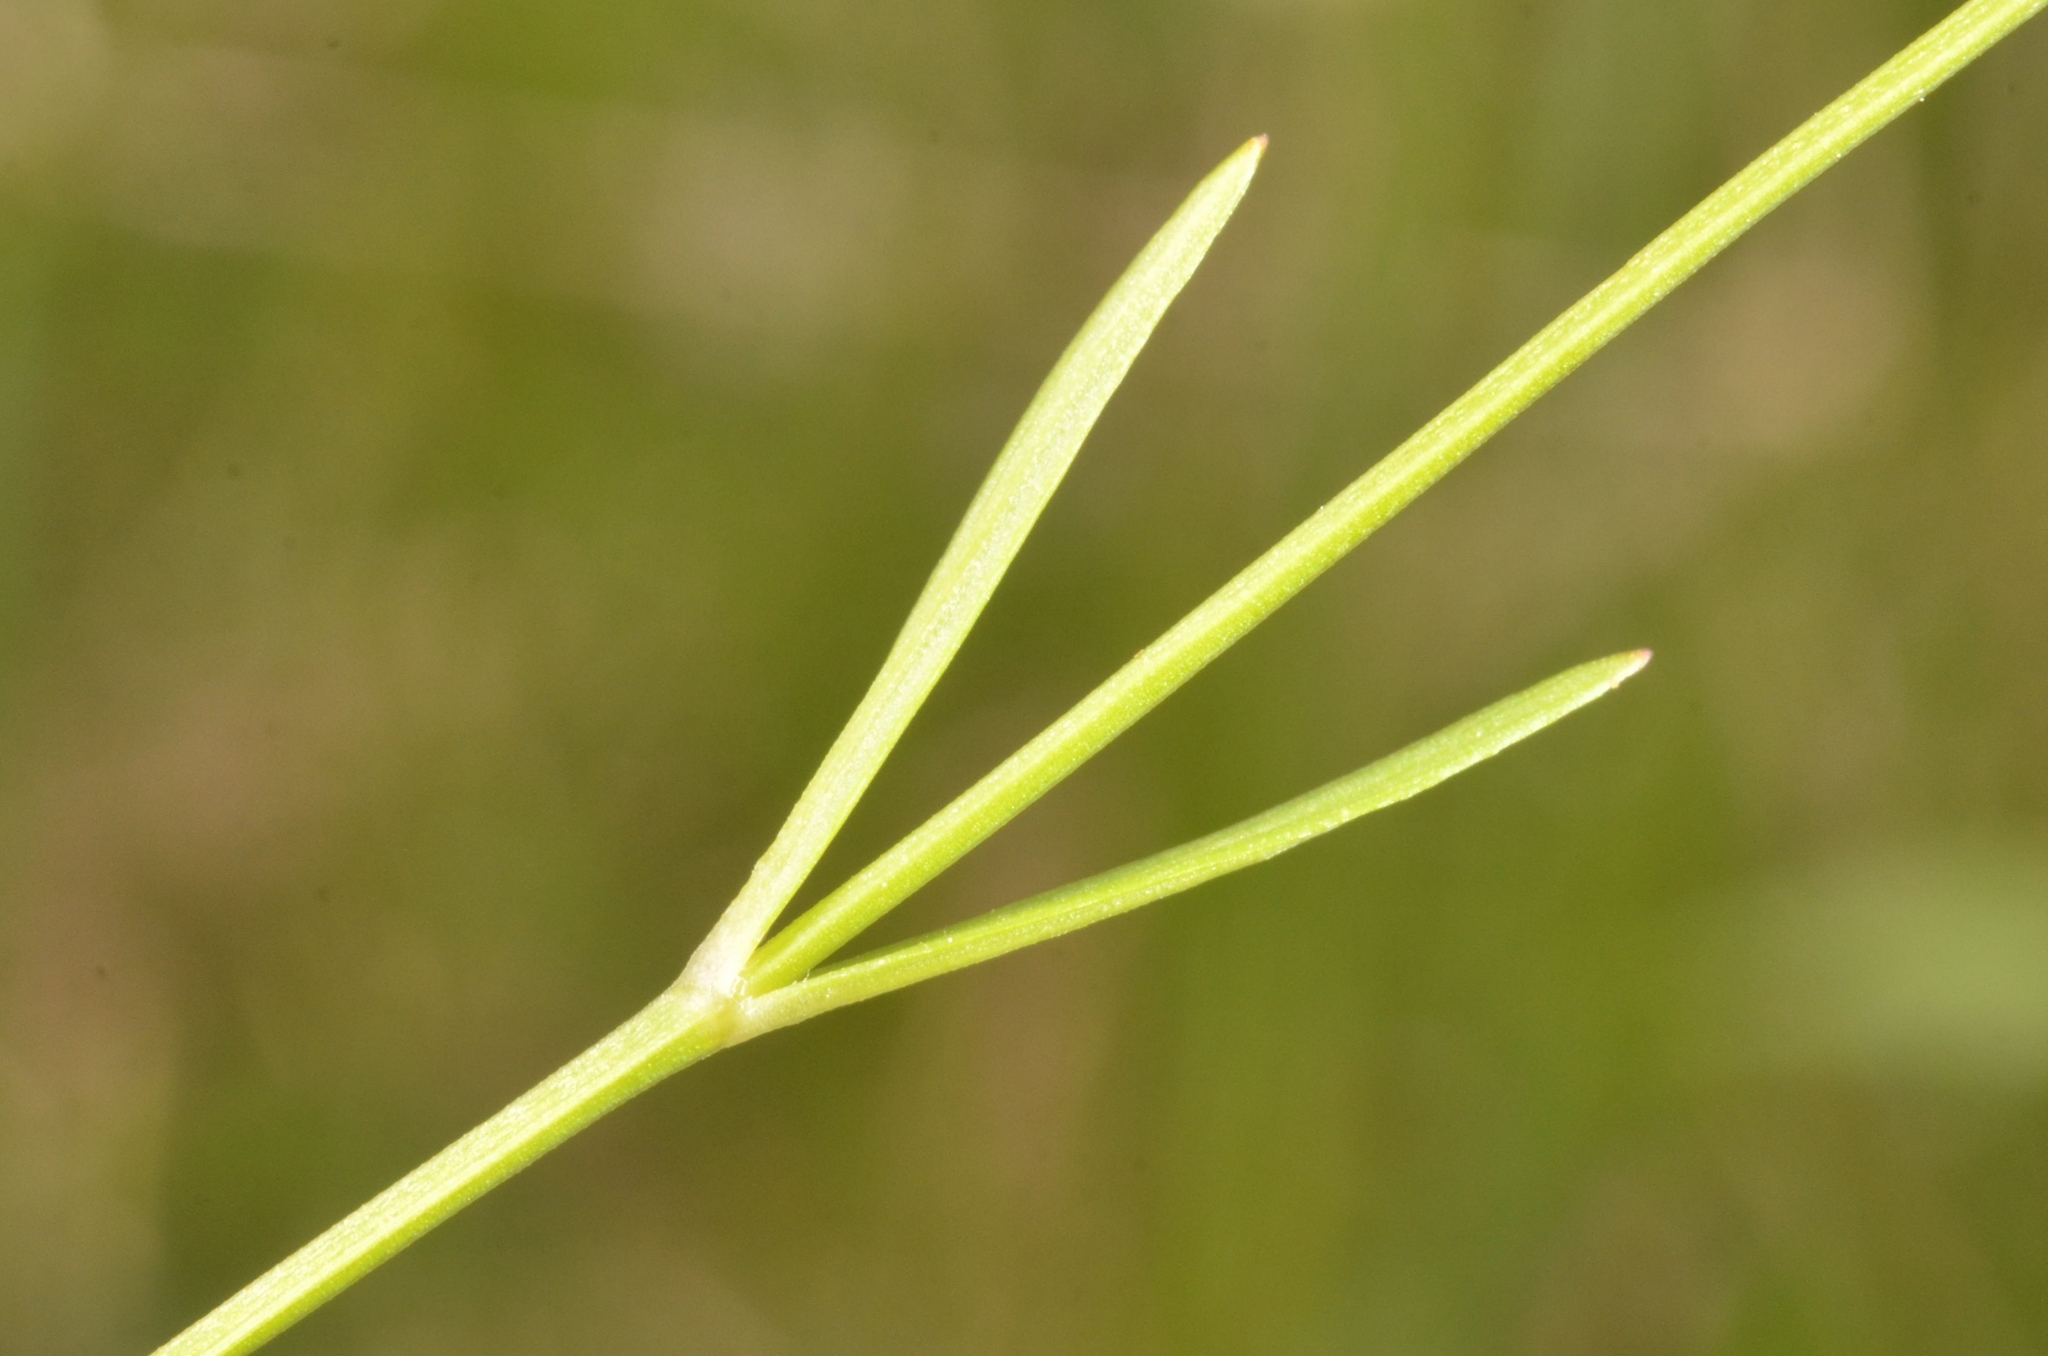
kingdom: Plantae
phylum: Tracheophyta
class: Magnoliopsida
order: Caryophyllales
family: Caryophyllaceae
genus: Stellaria
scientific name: Stellaria graminea
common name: Grass-like starwort
